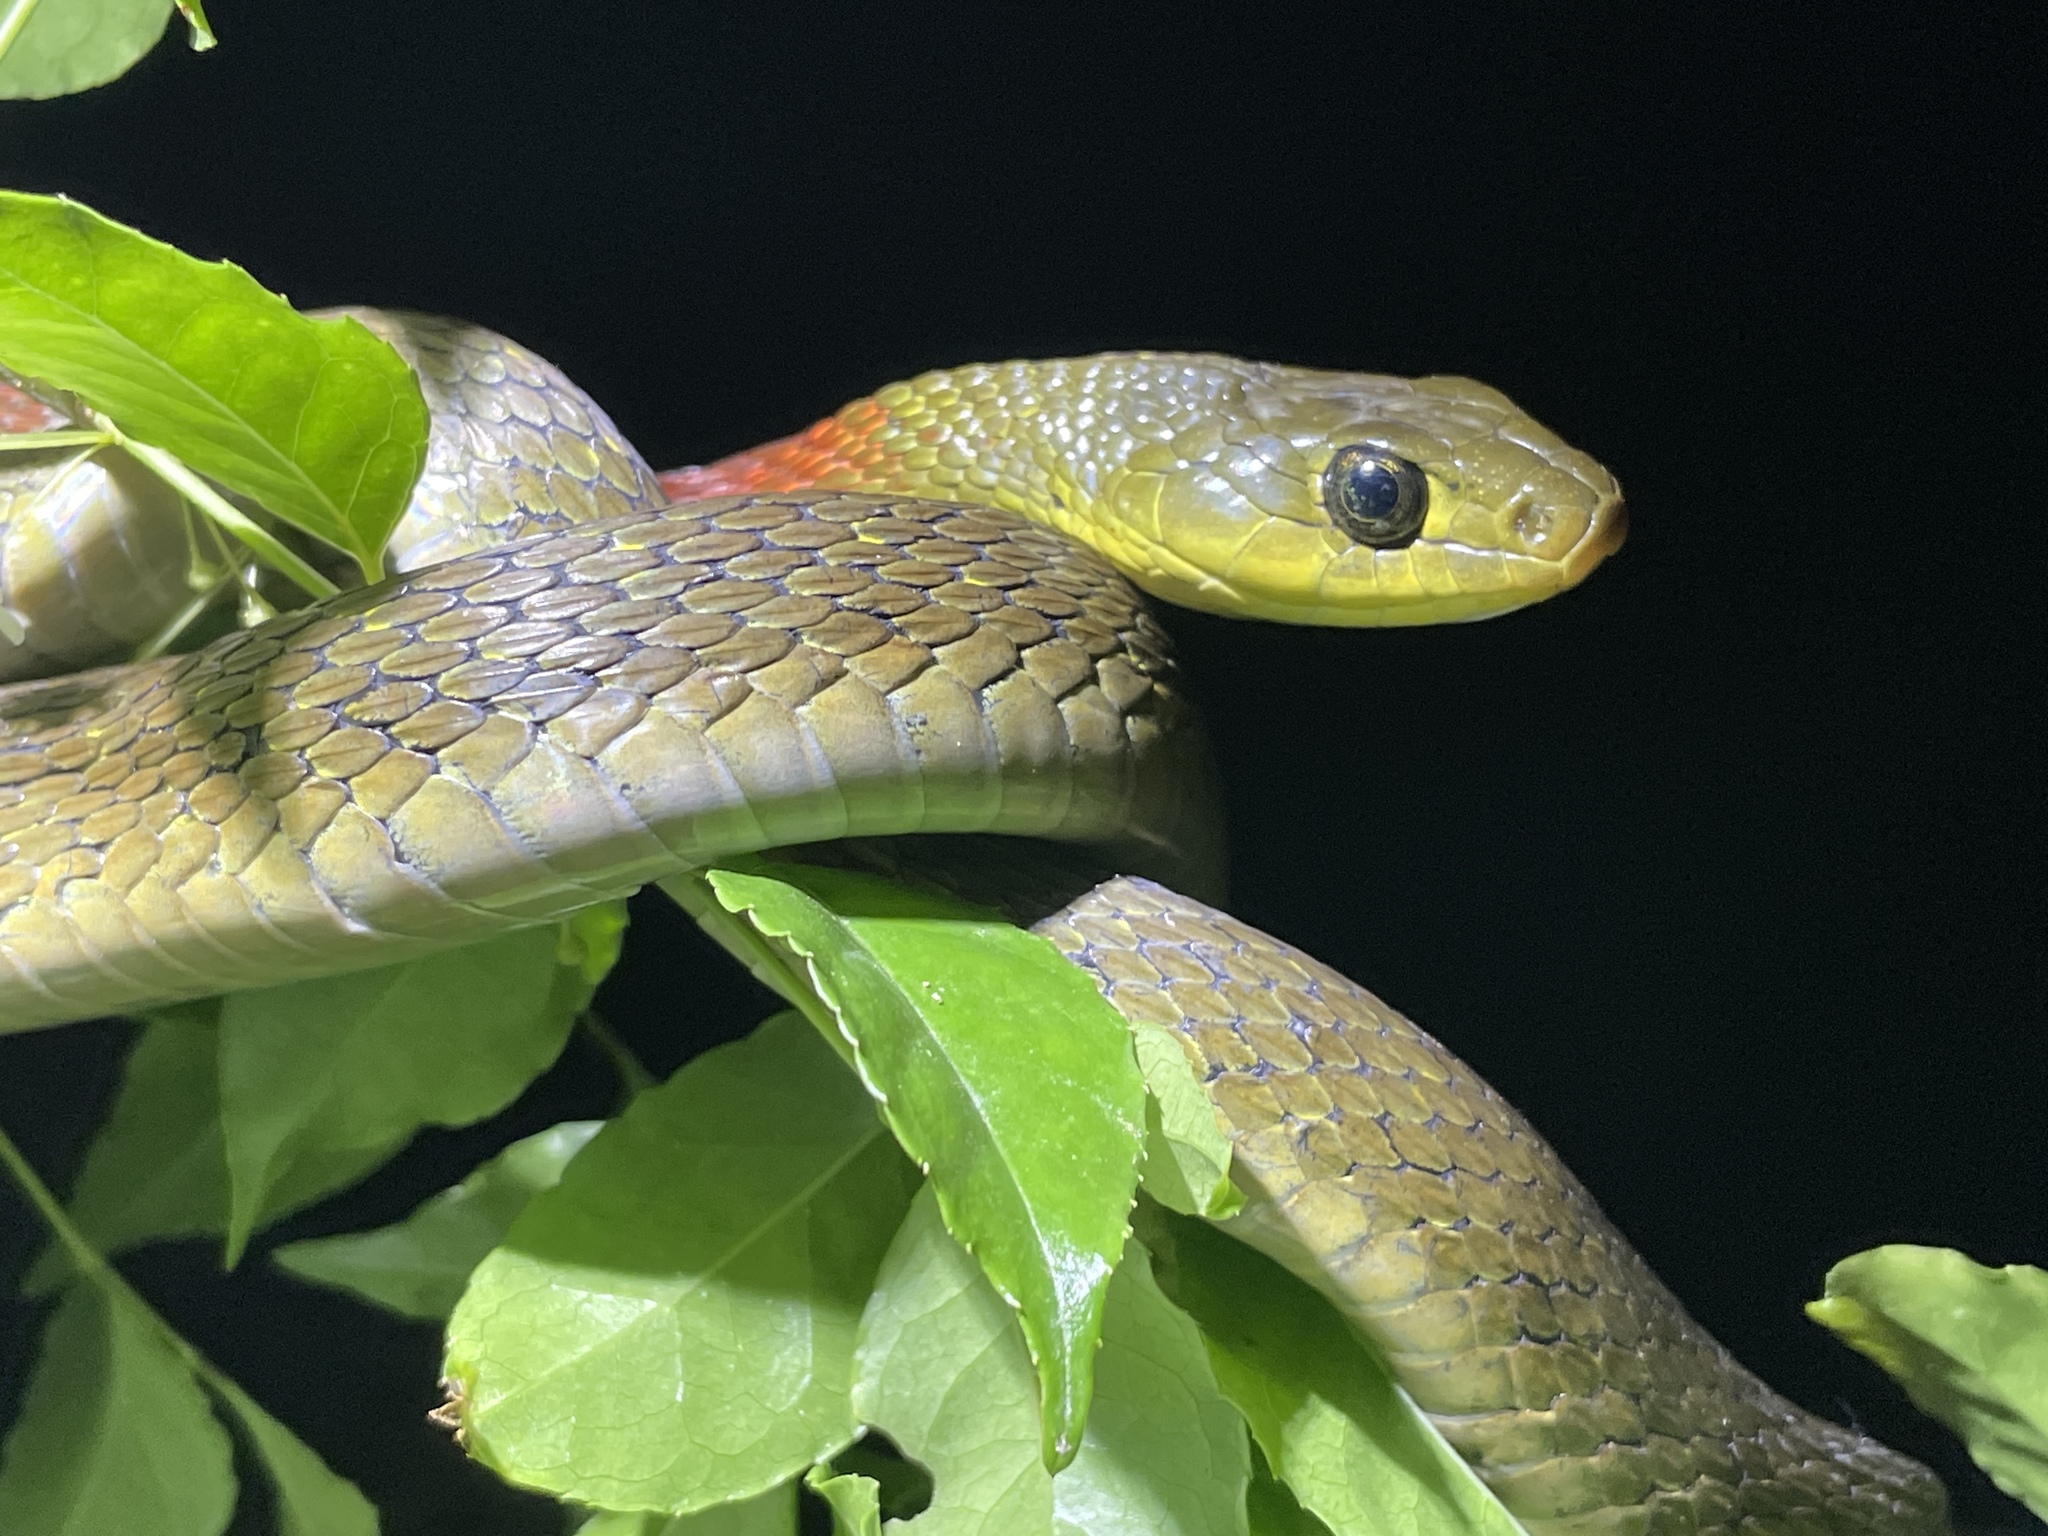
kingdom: Animalia
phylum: Chordata
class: Squamata
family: Colubridae
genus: Rhabdophis
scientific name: Rhabdophis helleri
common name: Heller’s red-necked keelback
